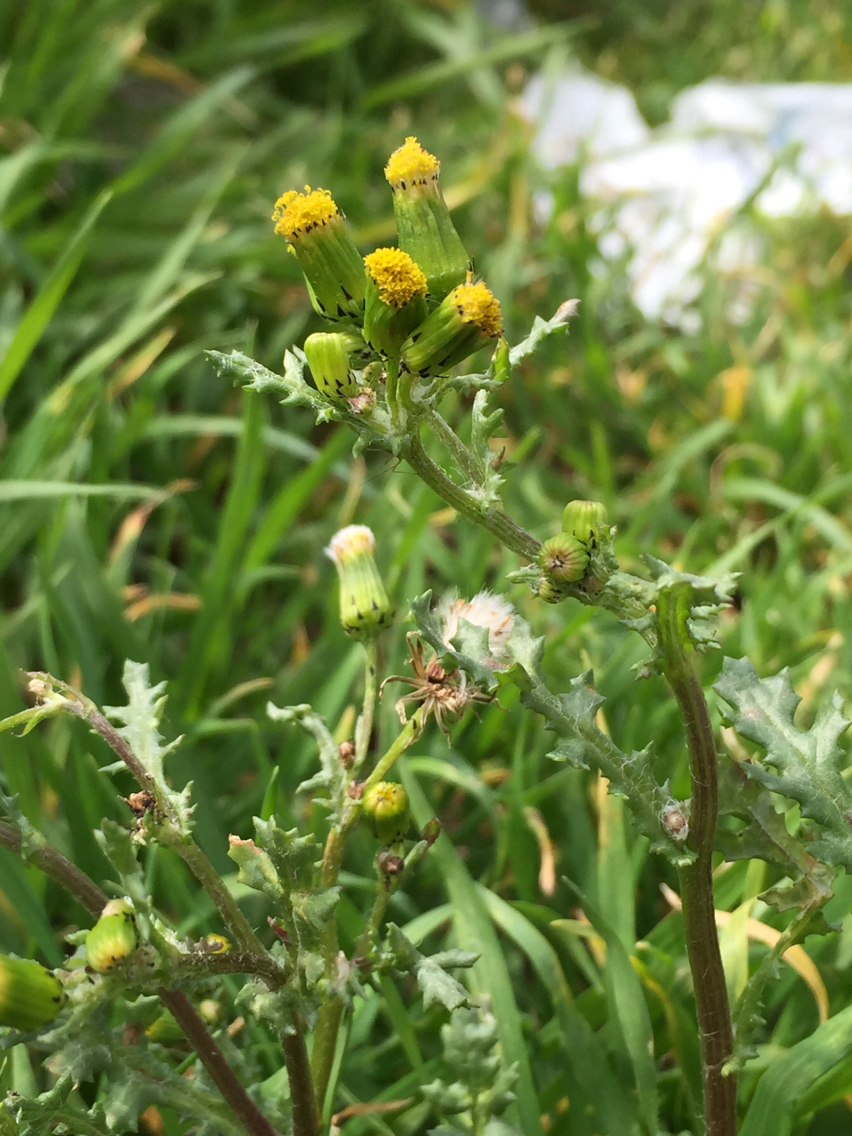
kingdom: Plantae
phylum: Tracheophyta
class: Magnoliopsida
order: Asterales
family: Asteraceae
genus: Senecio
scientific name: Senecio vulgaris
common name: Old-man-in-the-spring
